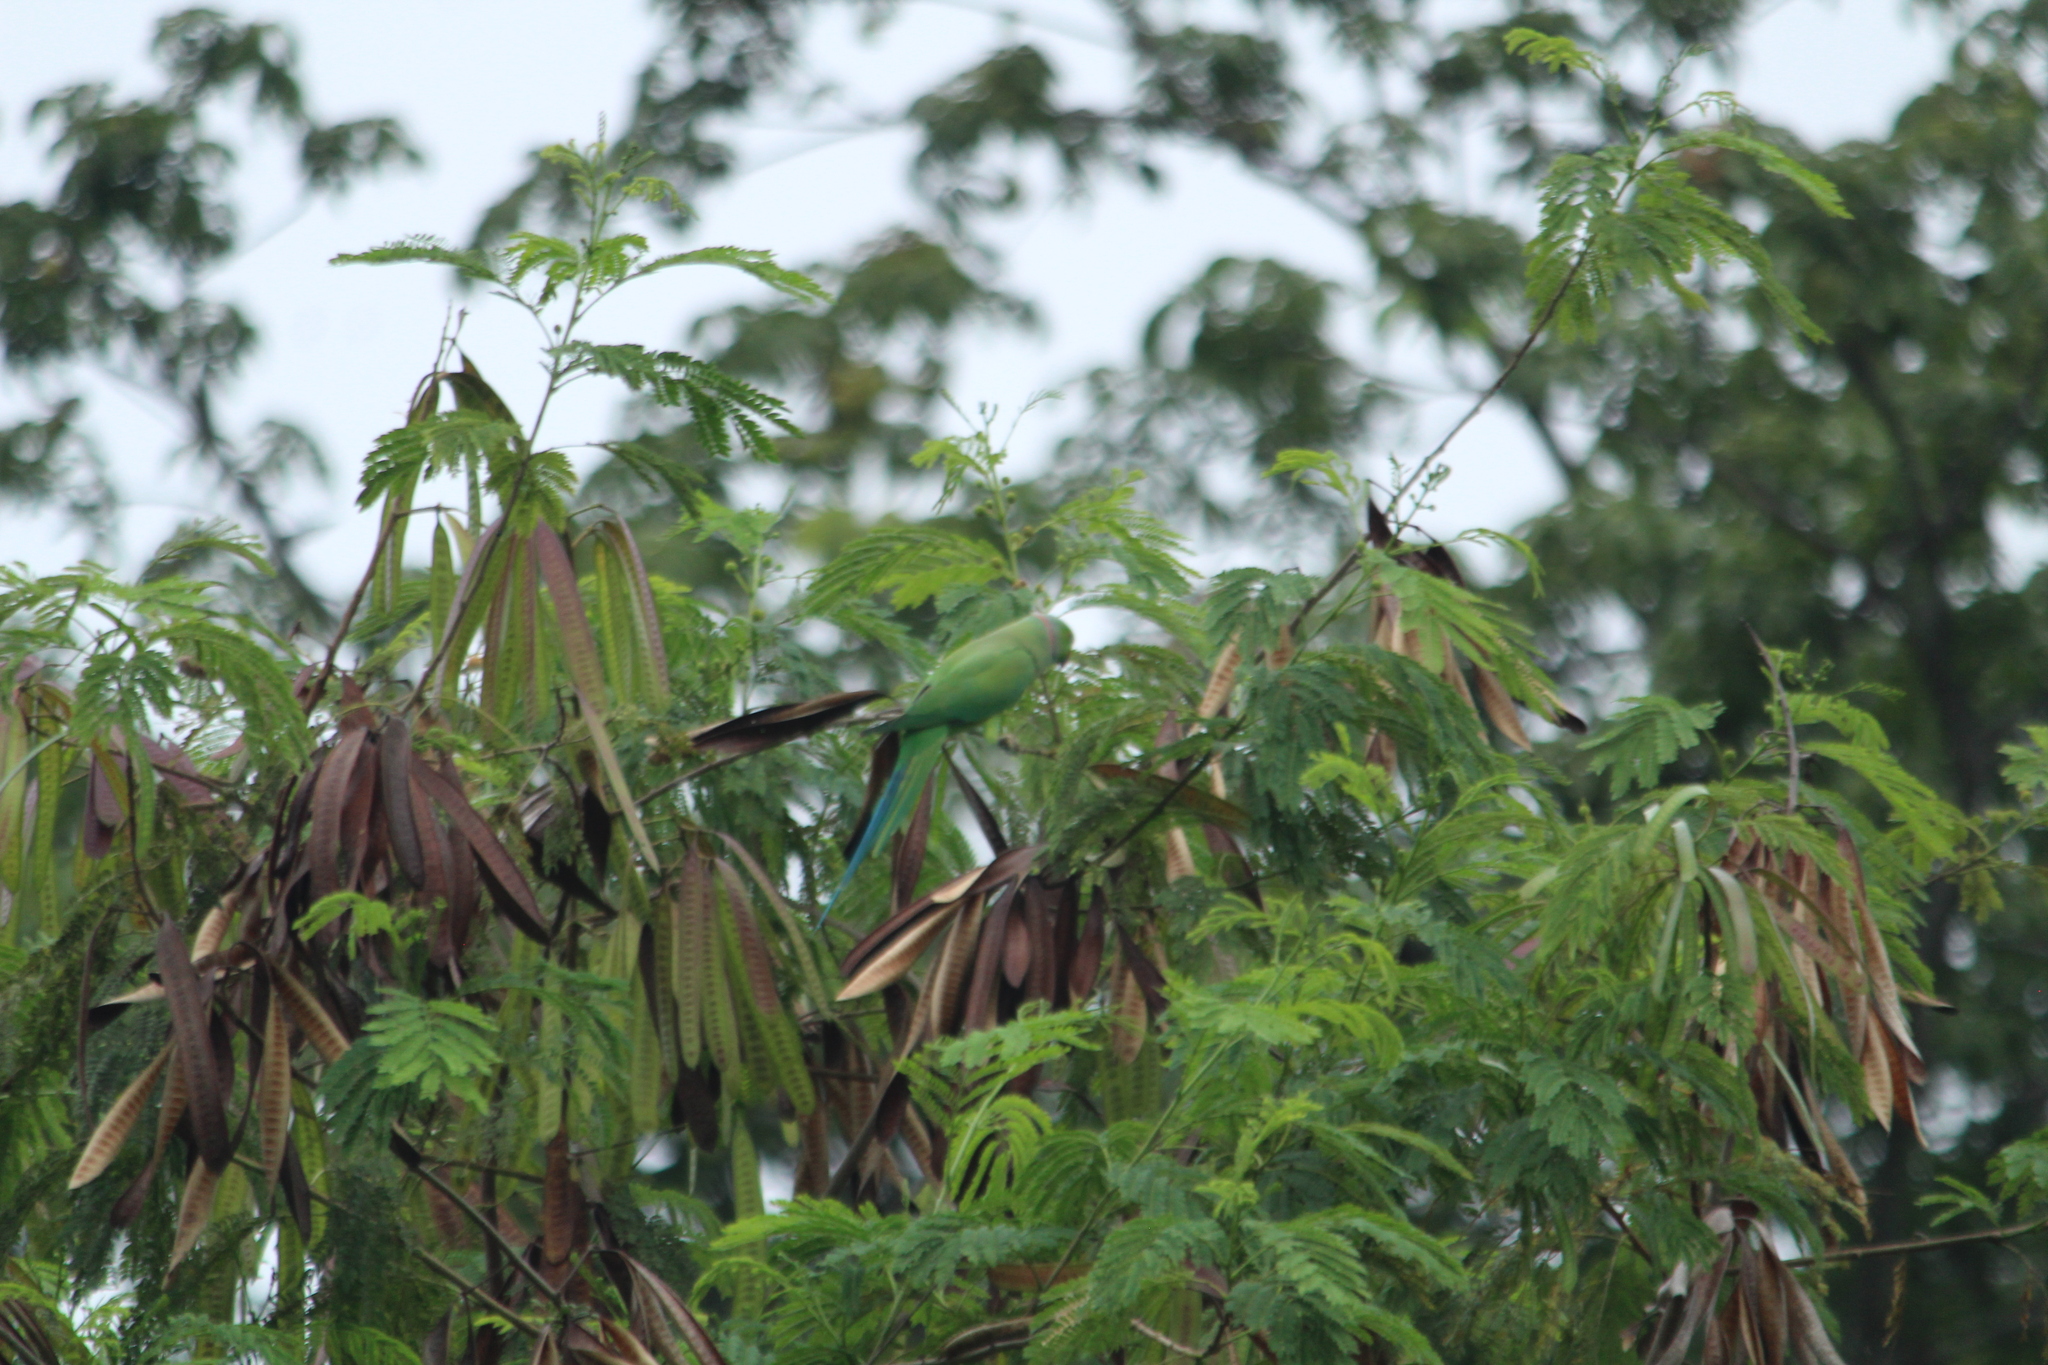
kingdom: Animalia
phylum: Chordata
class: Aves
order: Psittaciformes
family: Psittacidae
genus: Psittacula
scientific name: Psittacula krameri
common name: Rose-ringed parakeet
